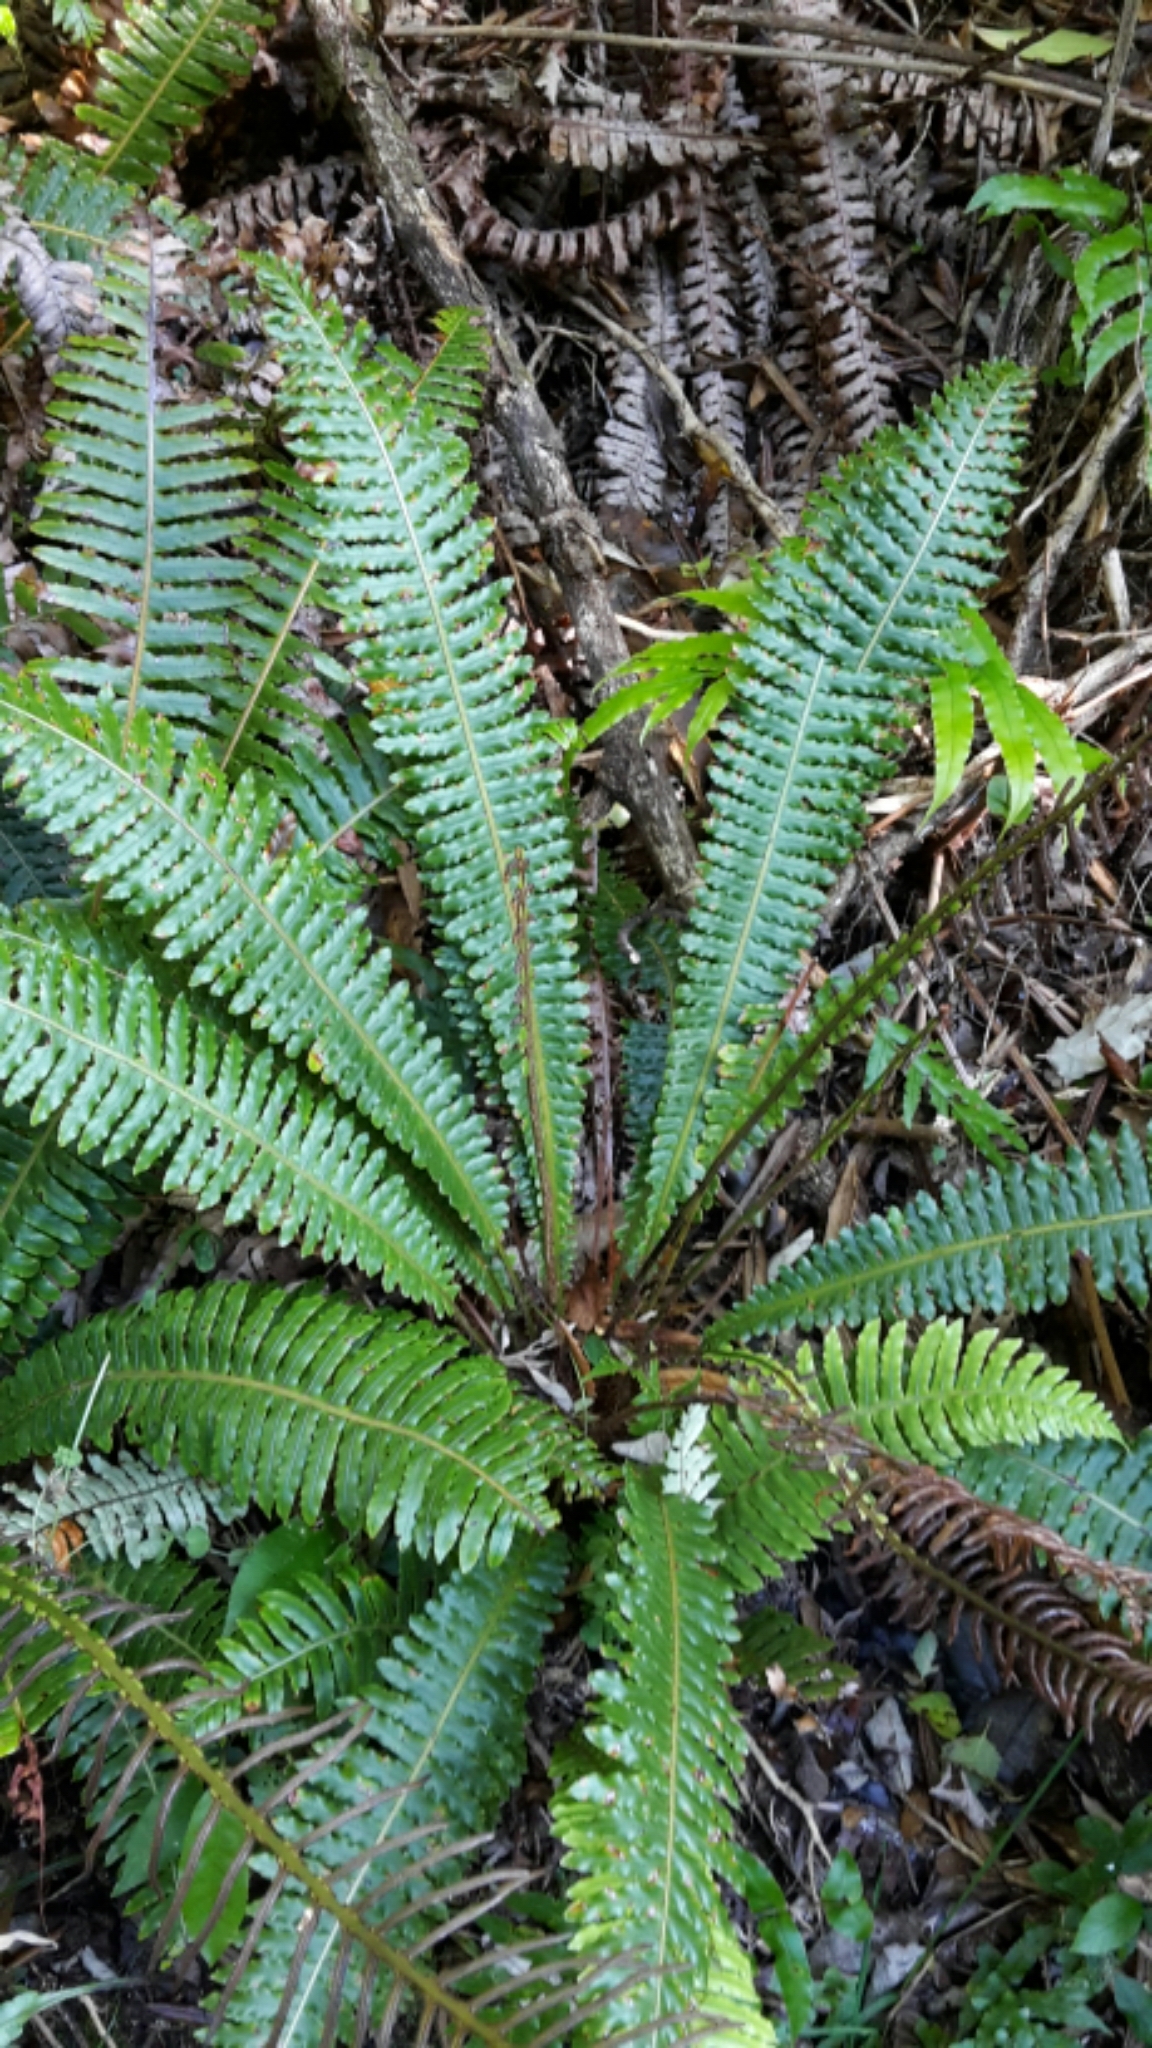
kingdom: Plantae
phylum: Tracheophyta
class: Polypodiopsida
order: Polypodiales
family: Blechnaceae
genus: Lomaria
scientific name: Lomaria discolor
